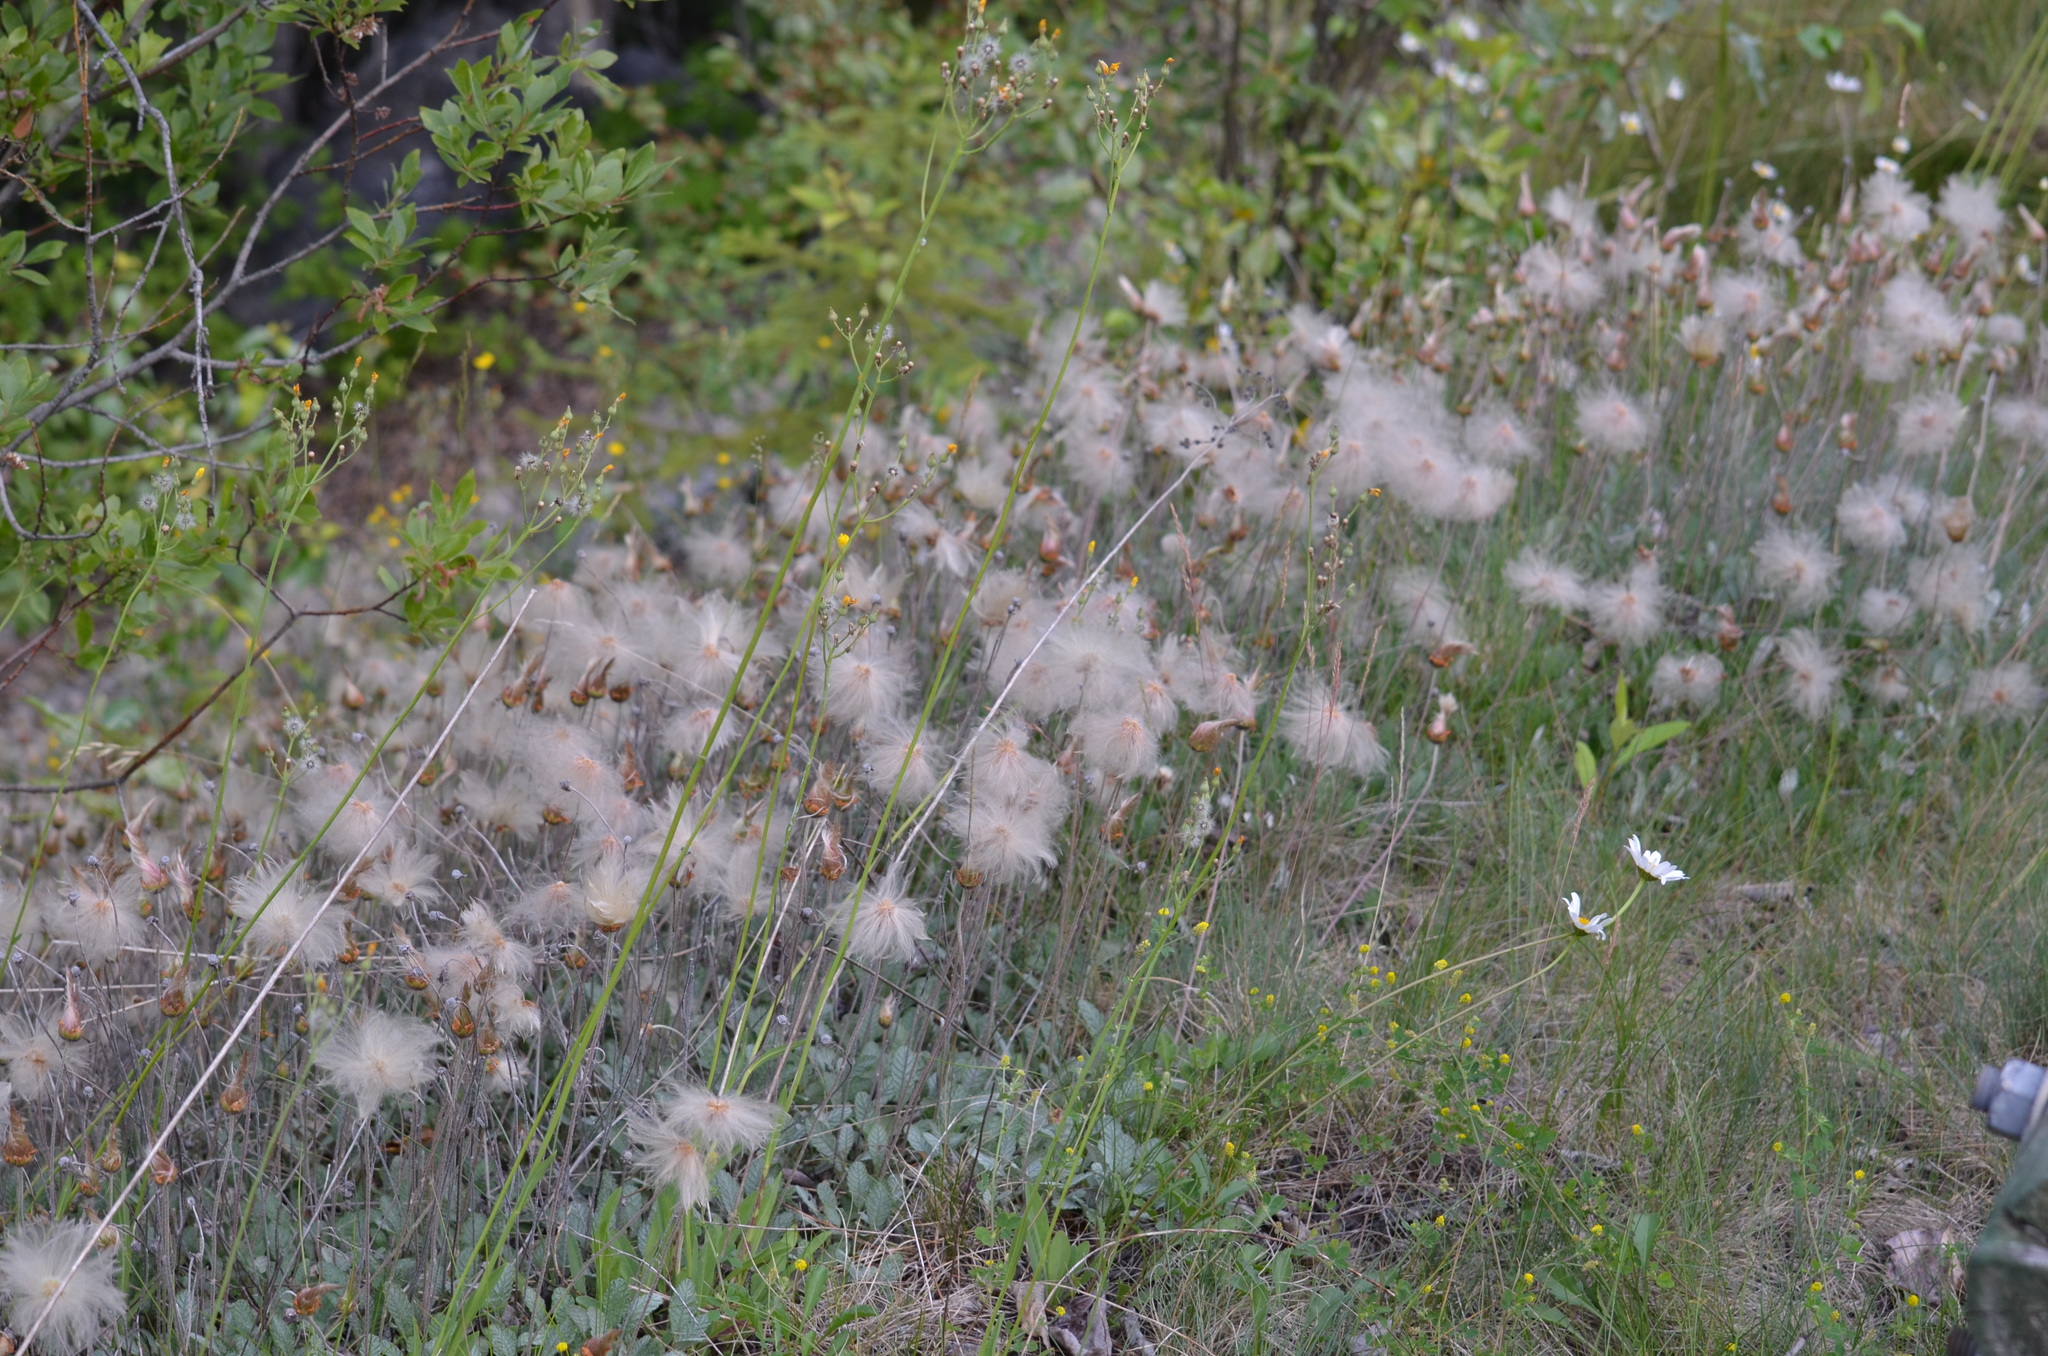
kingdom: Plantae
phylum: Tracheophyta
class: Magnoliopsida
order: Rosales
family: Rosaceae
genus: Dryas
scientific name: Dryas drummondii
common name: Drummond's dryad
